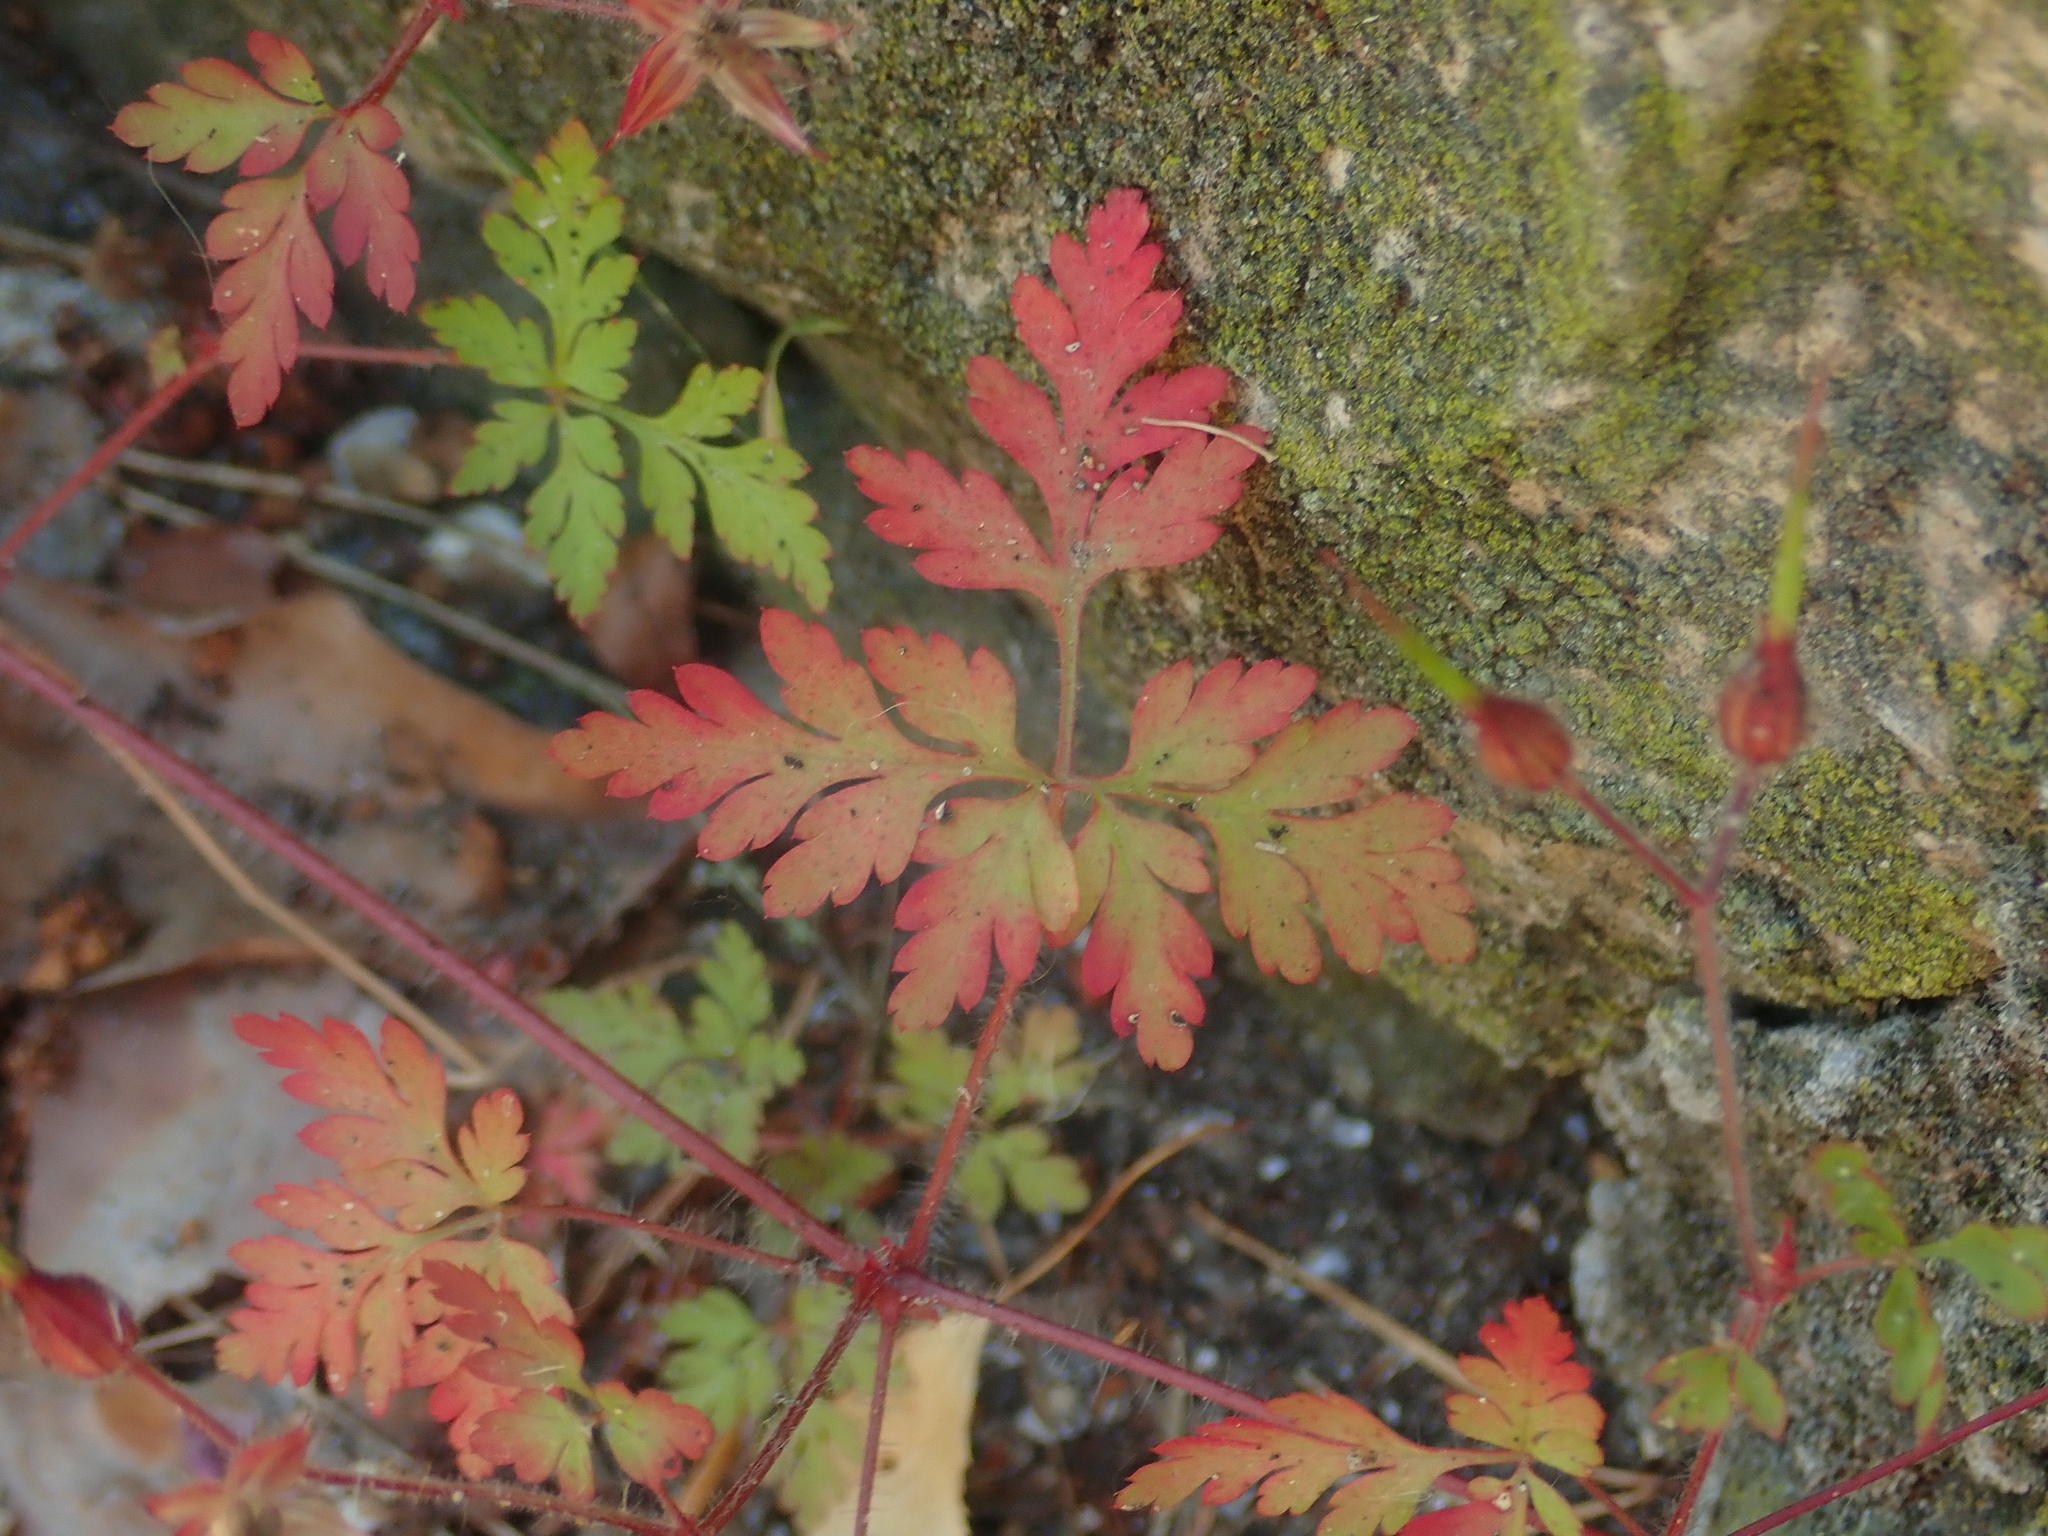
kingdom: Plantae
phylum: Tracheophyta
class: Magnoliopsida
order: Geraniales
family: Geraniaceae
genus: Geranium
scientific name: Geranium robertianum
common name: Herb-robert
